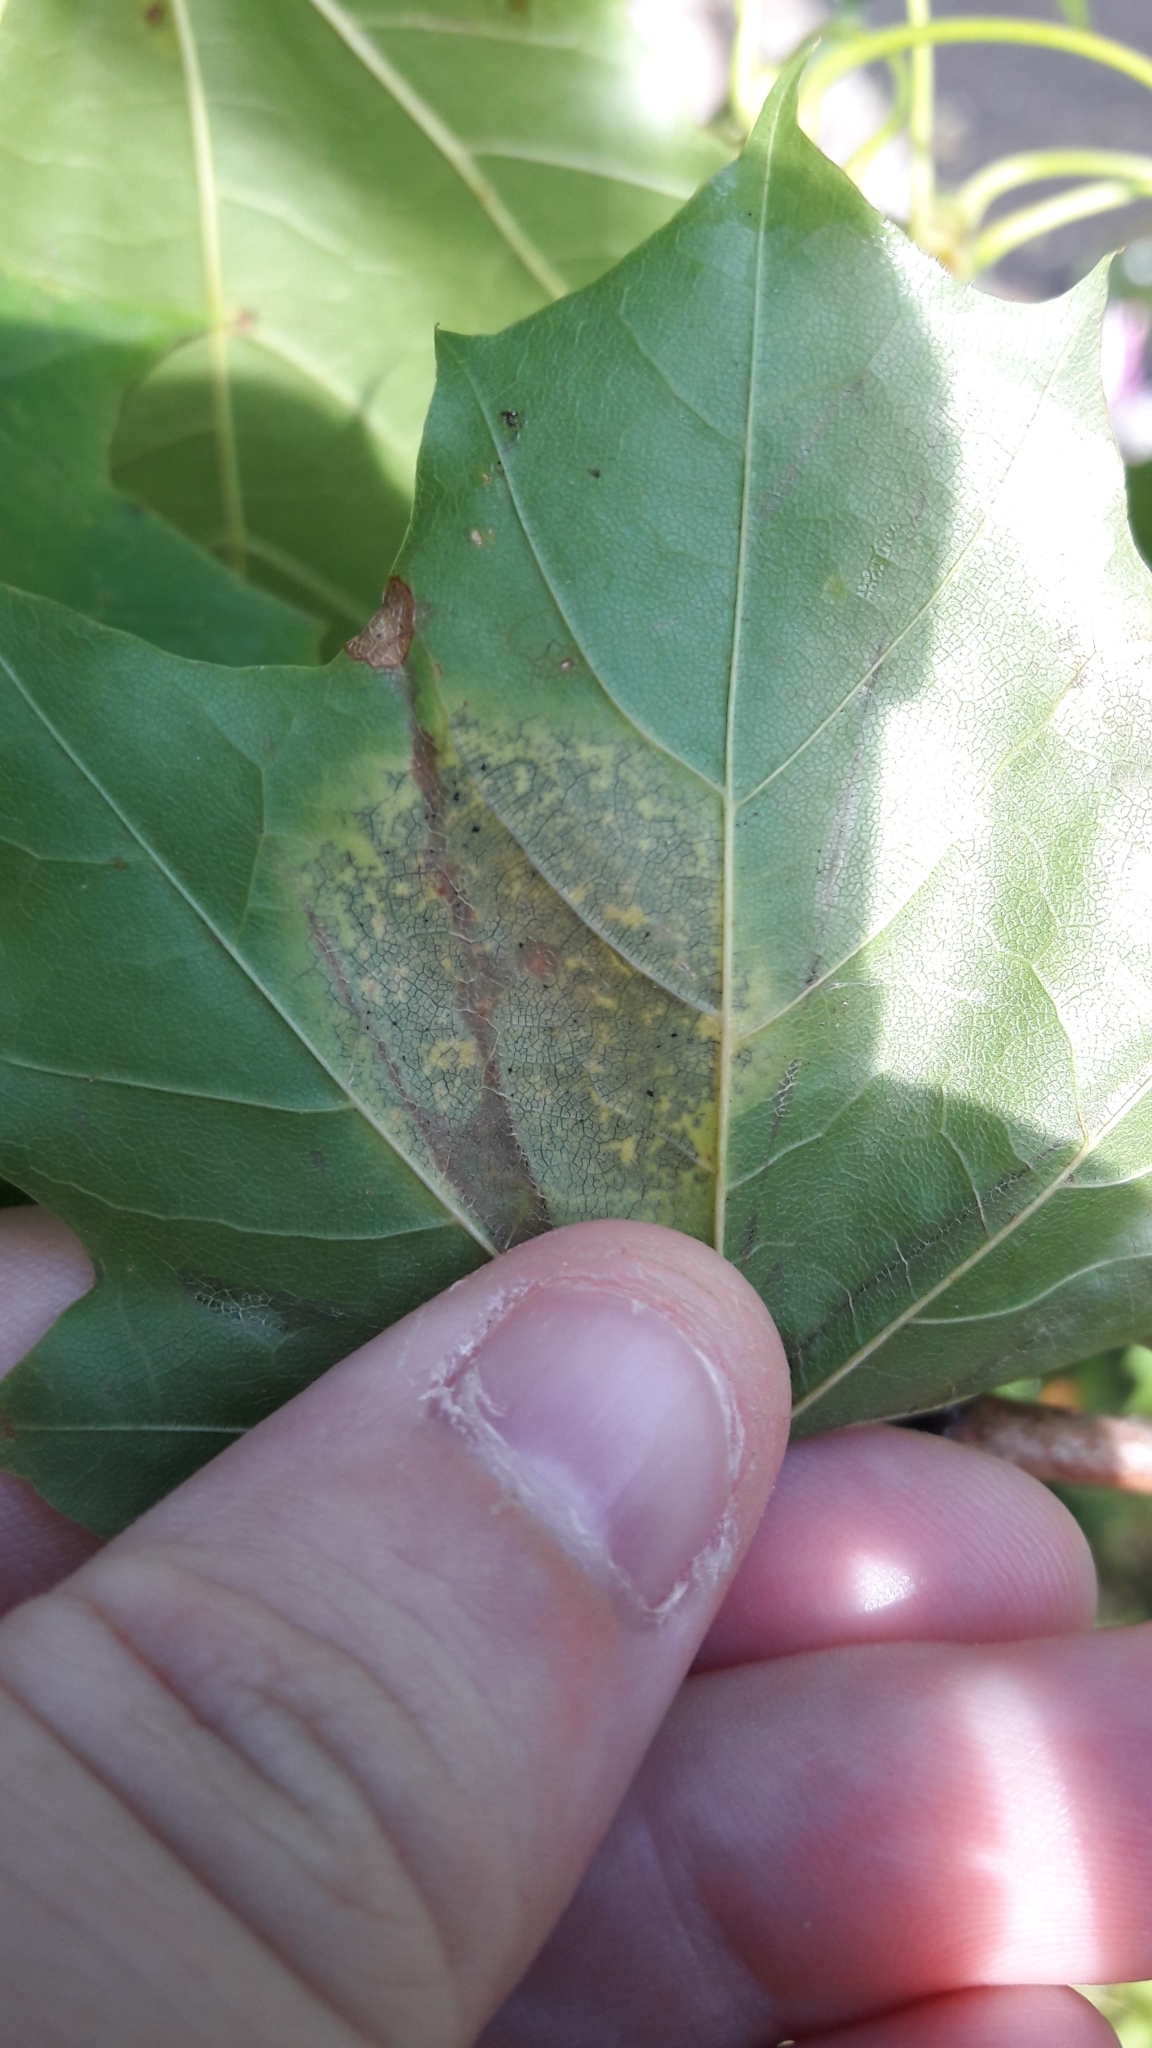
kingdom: Fungi
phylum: Ascomycota
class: Leotiomycetes
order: Rhytismatales
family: Rhytismataceae
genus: Rhytisma
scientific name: Rhytisma acerinum
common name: European tar spot
